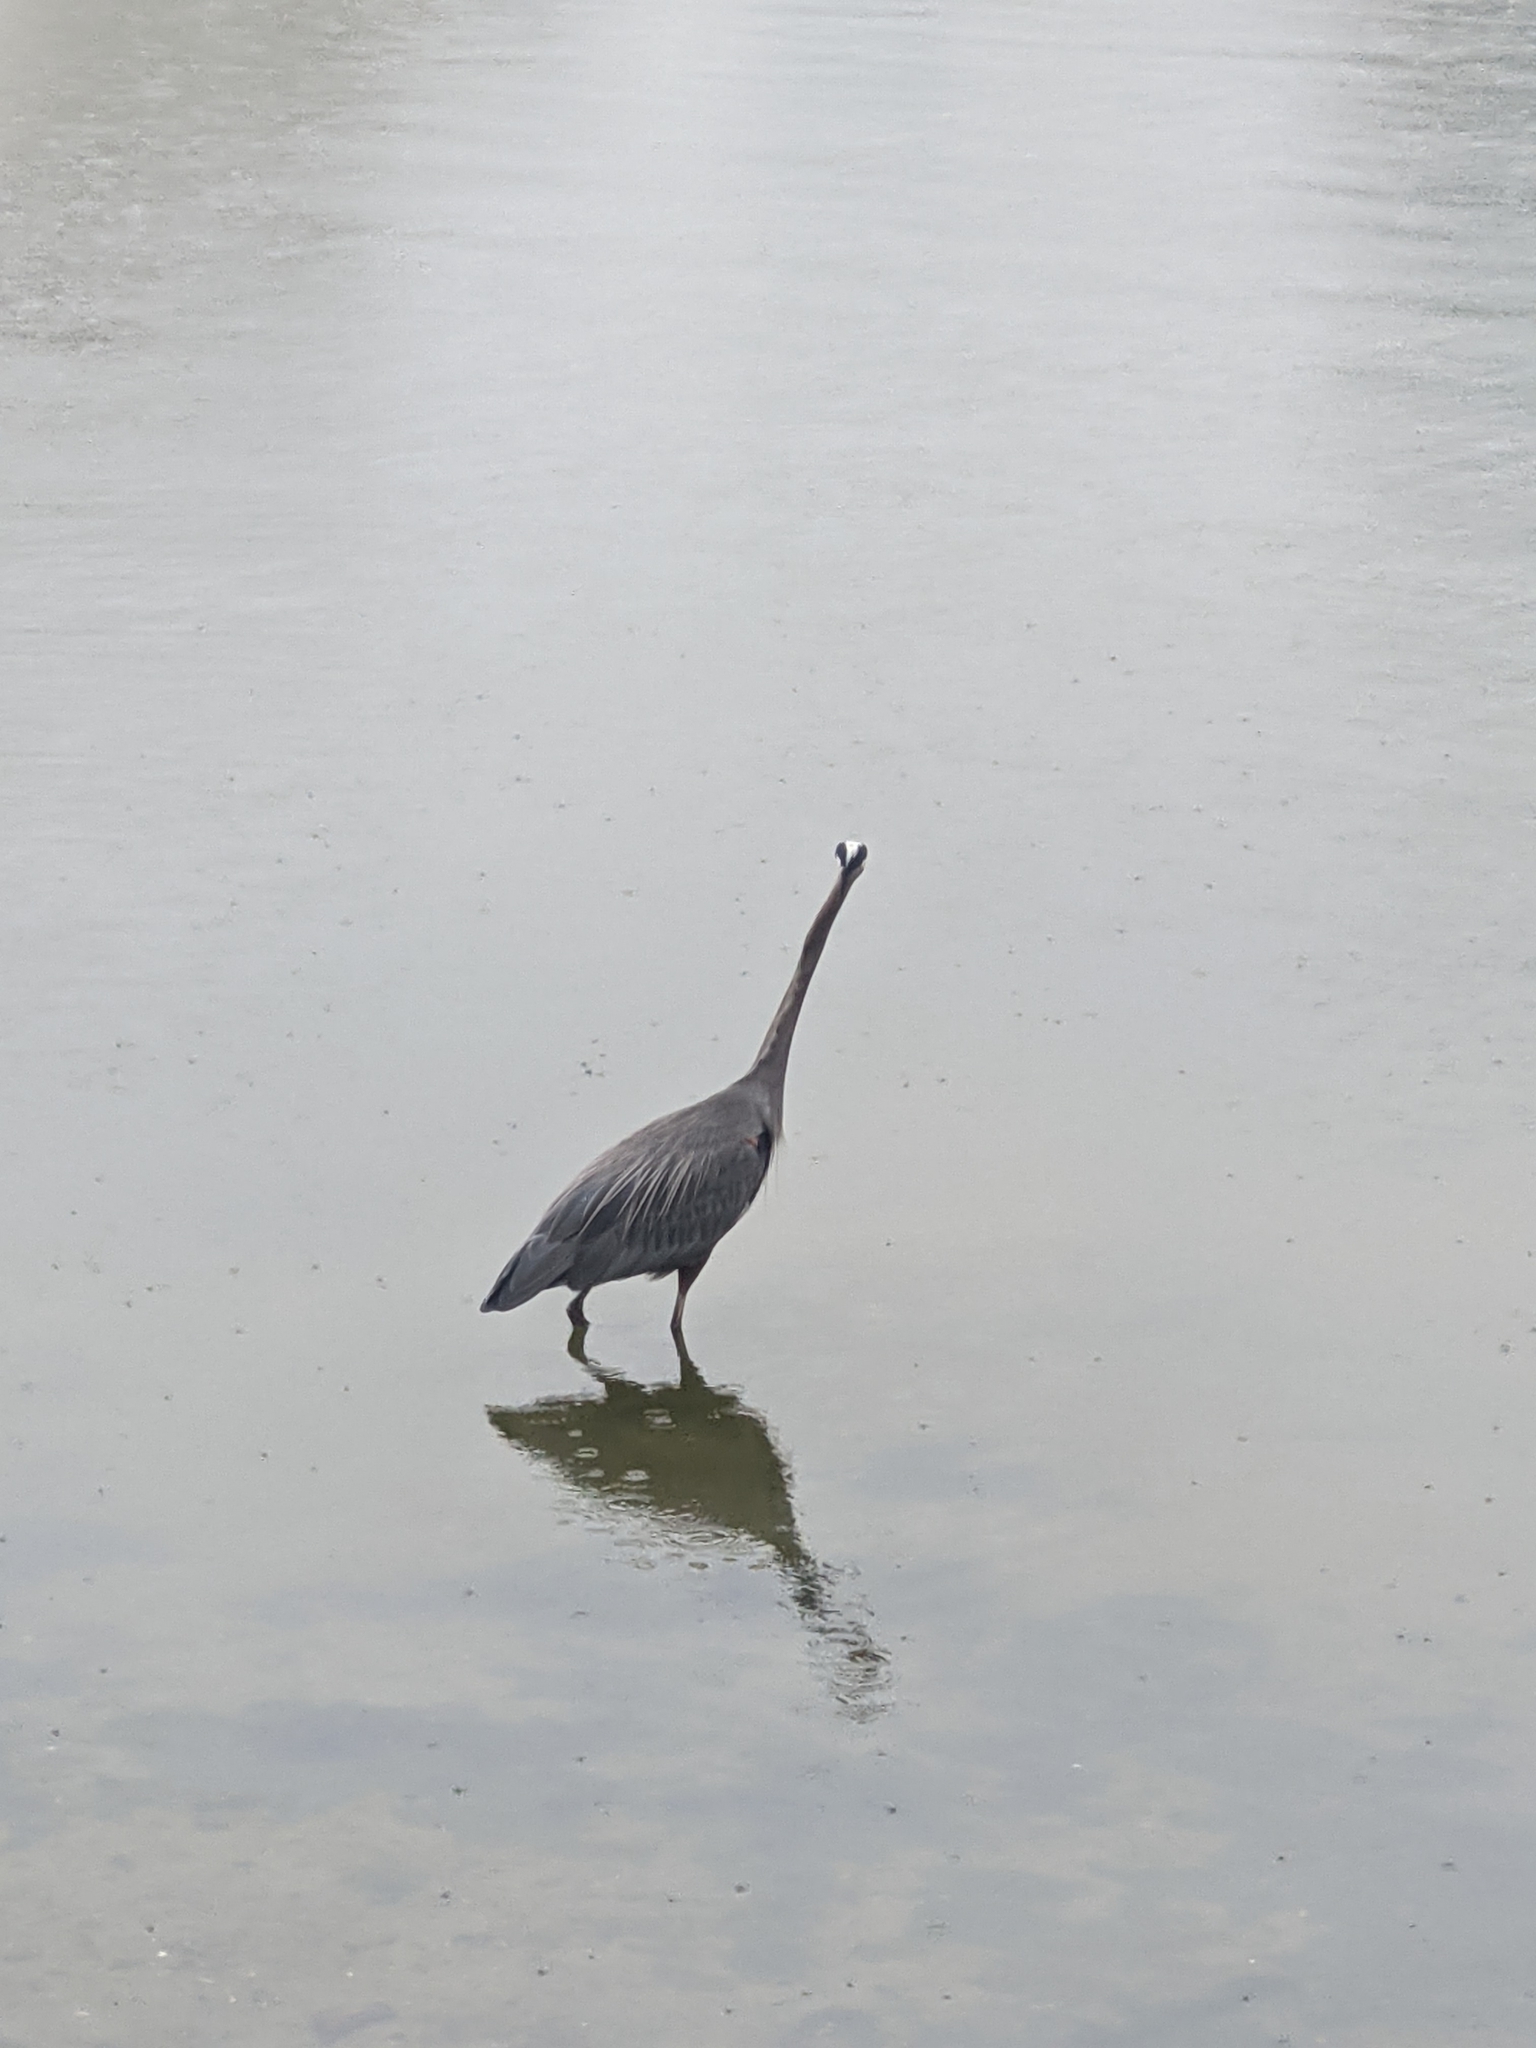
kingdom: Animalia
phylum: Chordata
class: Aves
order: Pelecaniformes
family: Ardeidae
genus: Ardea
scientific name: Ardea herodias
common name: Great blue heron
